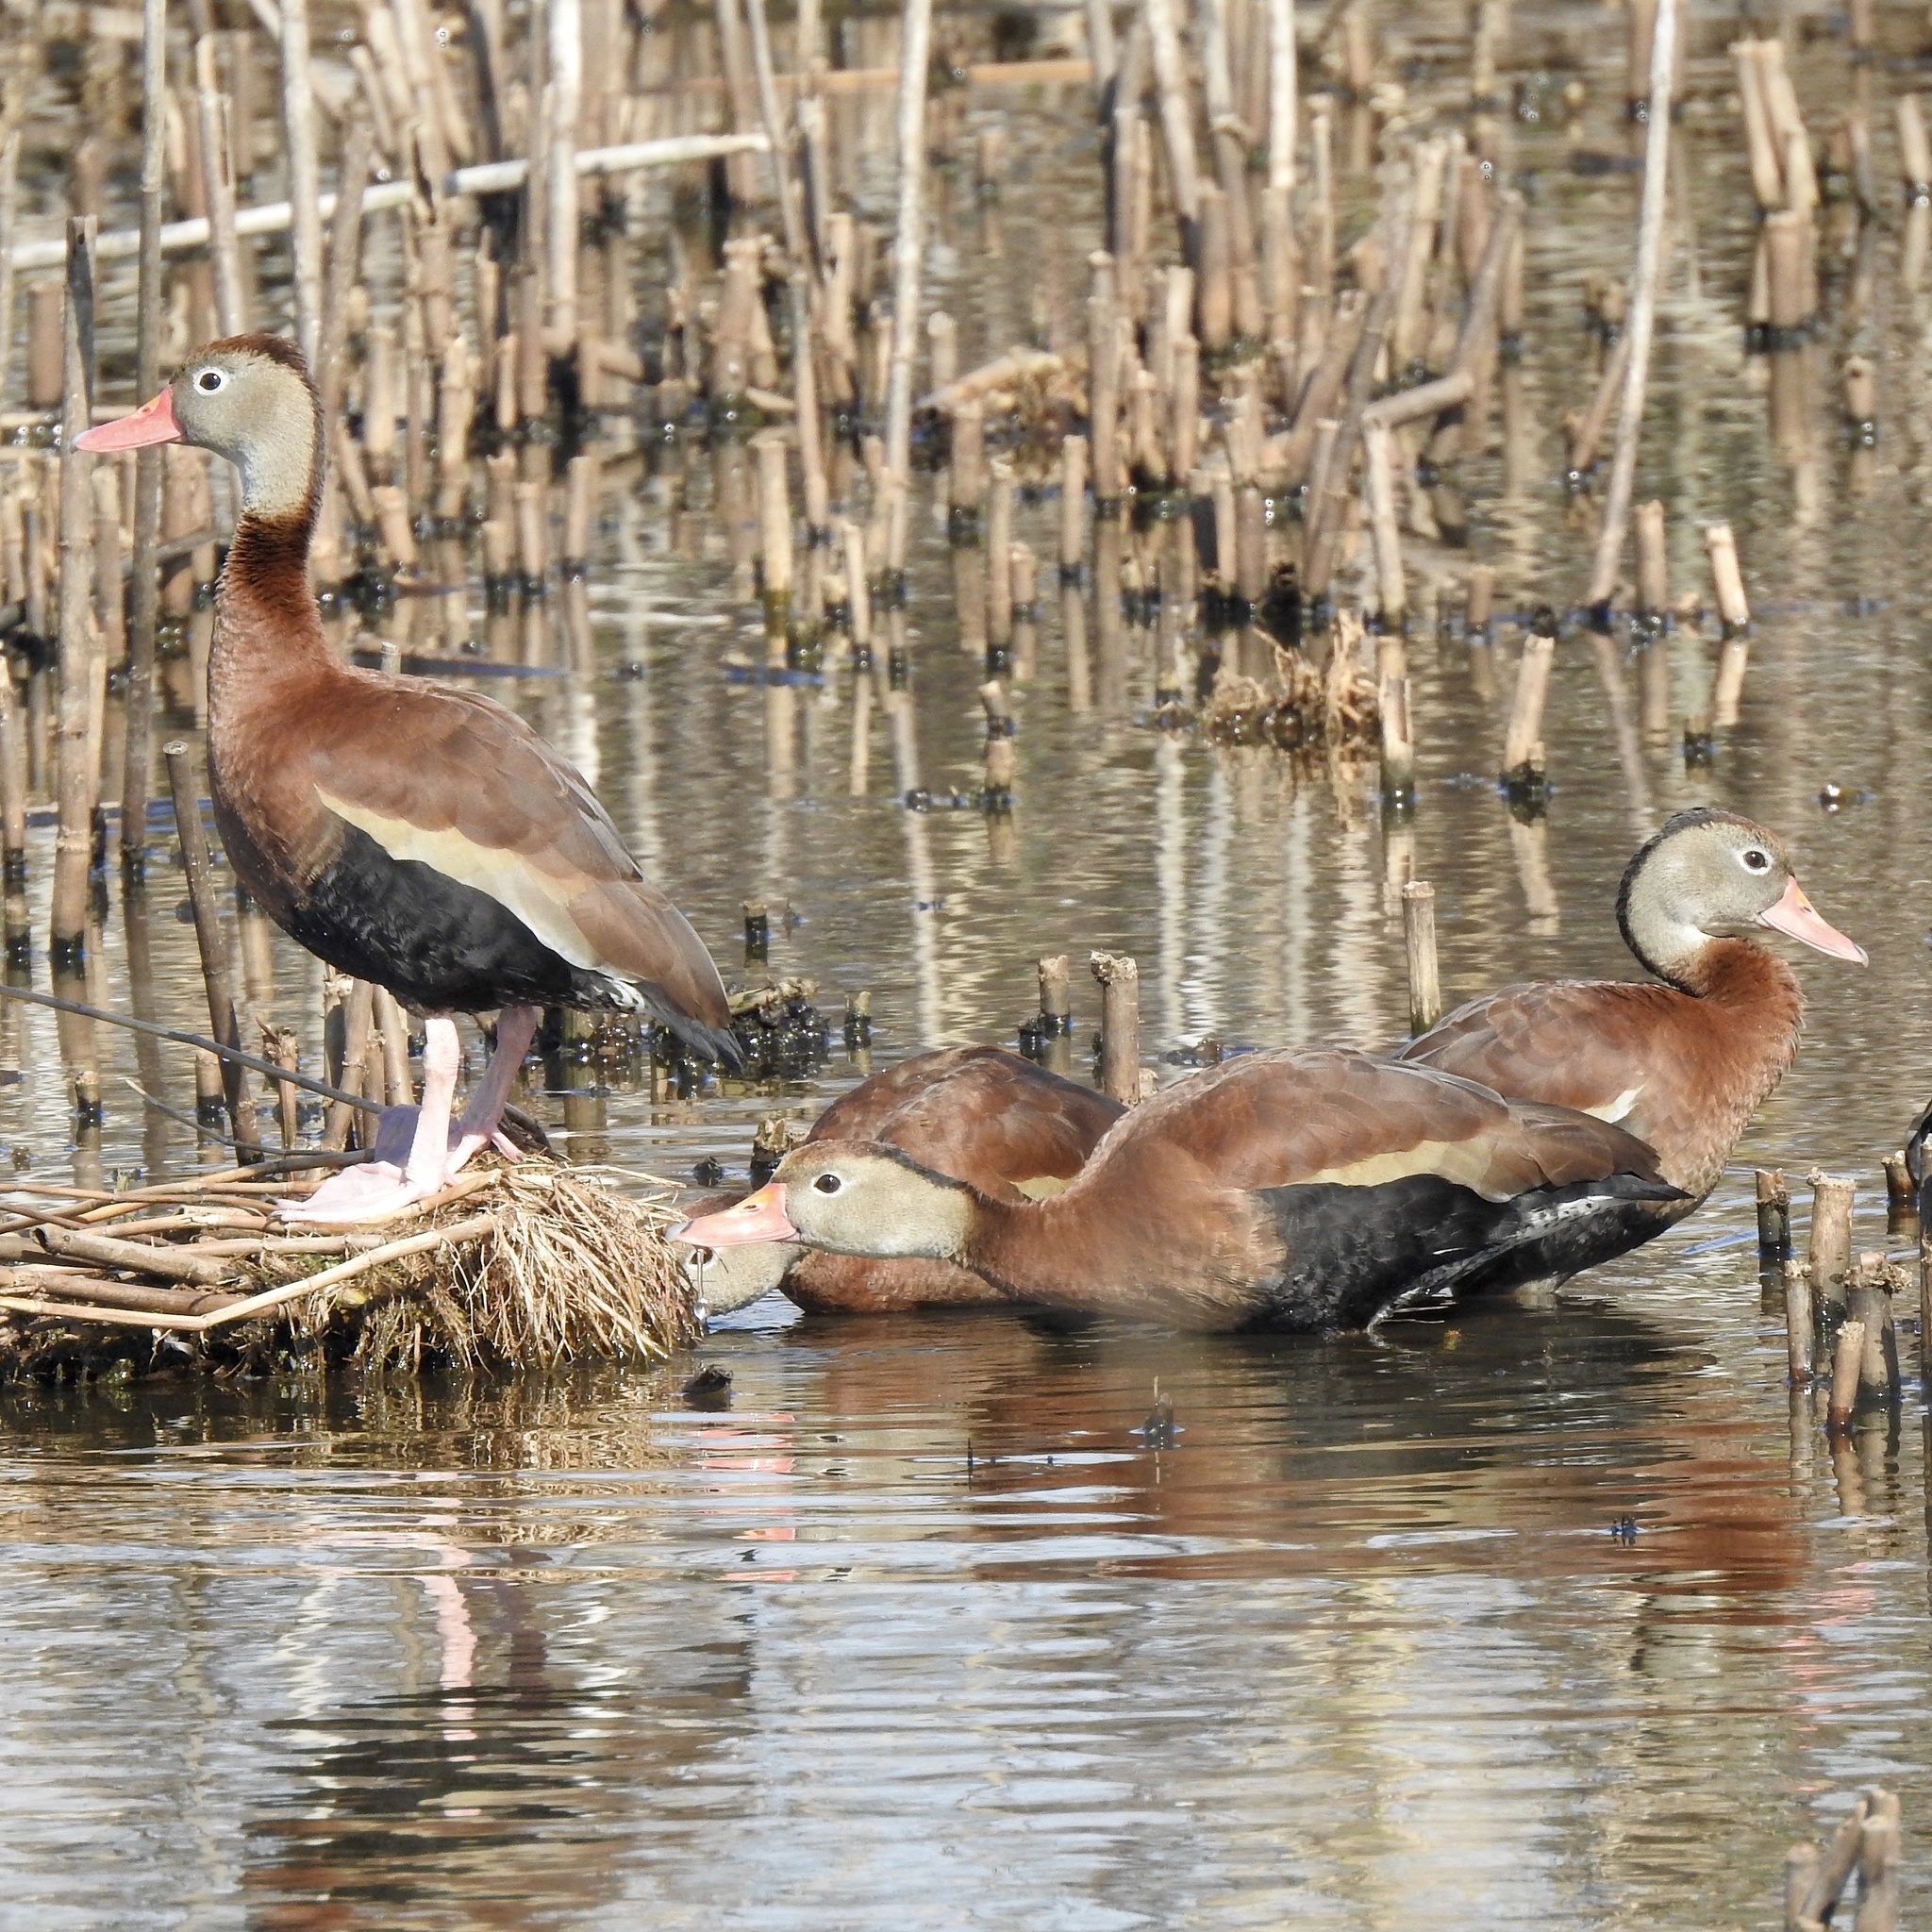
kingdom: Animalia
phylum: Chordata
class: Aves
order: Anseriformes
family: Anatidae
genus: Dendrocygna
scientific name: Dendrocygna autumnalis
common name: Black-bellied whistling duck
